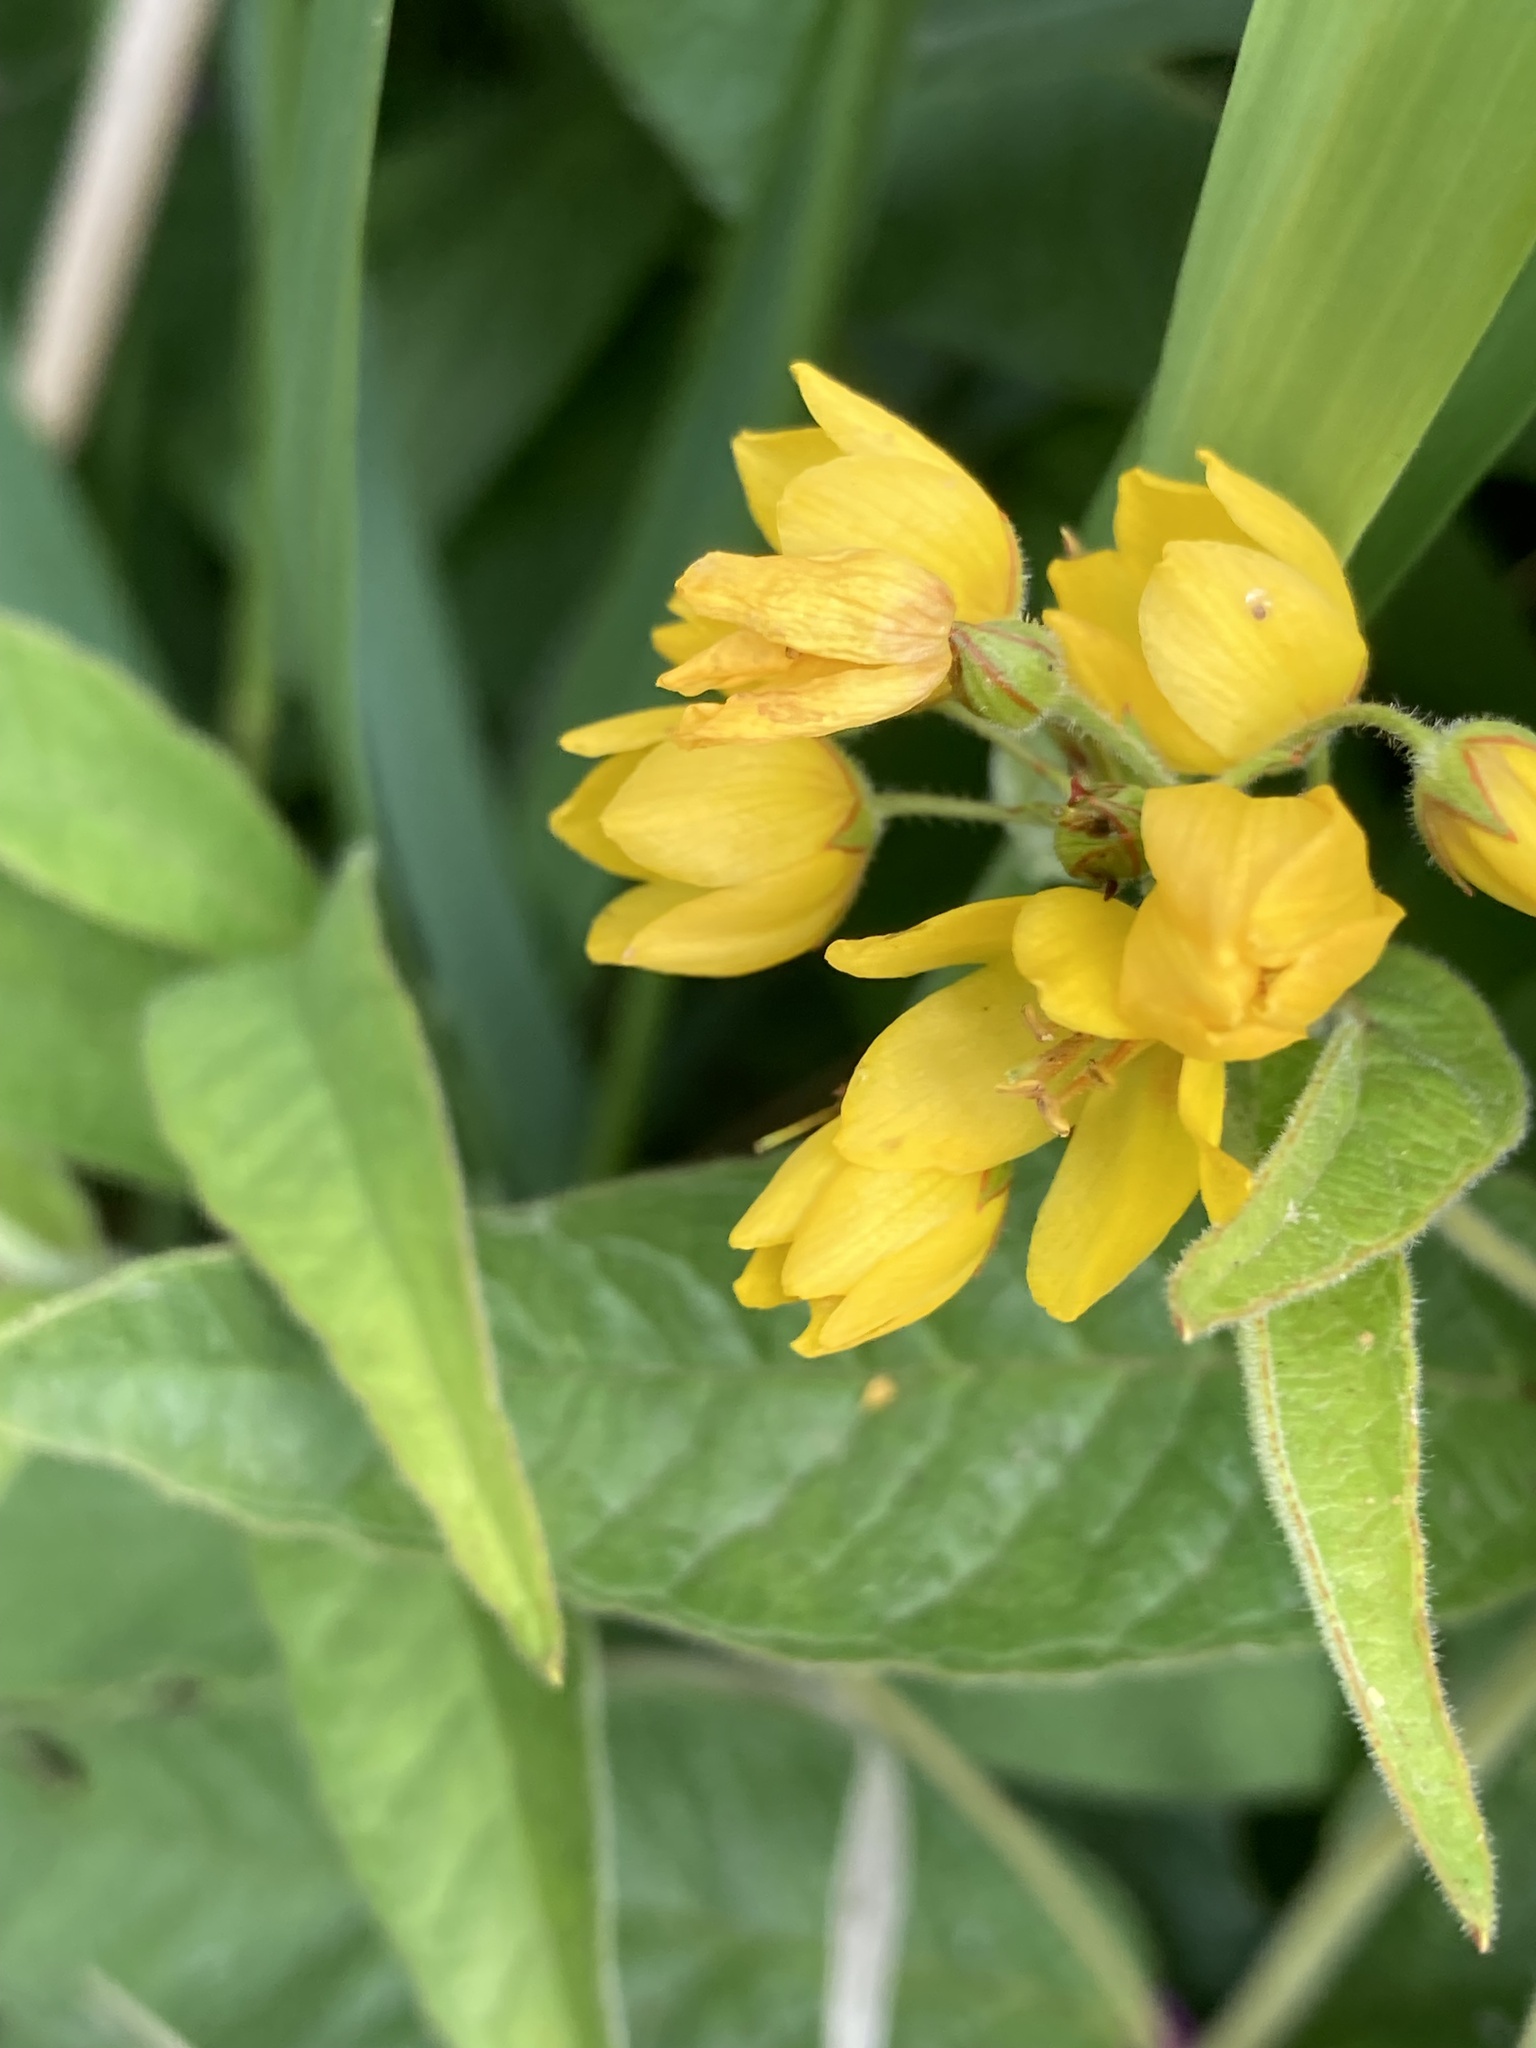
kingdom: Plantae
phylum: Tracheophyta
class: Magnoliopsida
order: Ericales
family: Primulaceae
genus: Lysimachia
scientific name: Lysimachia vulgaris
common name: Yellow loosestrife
